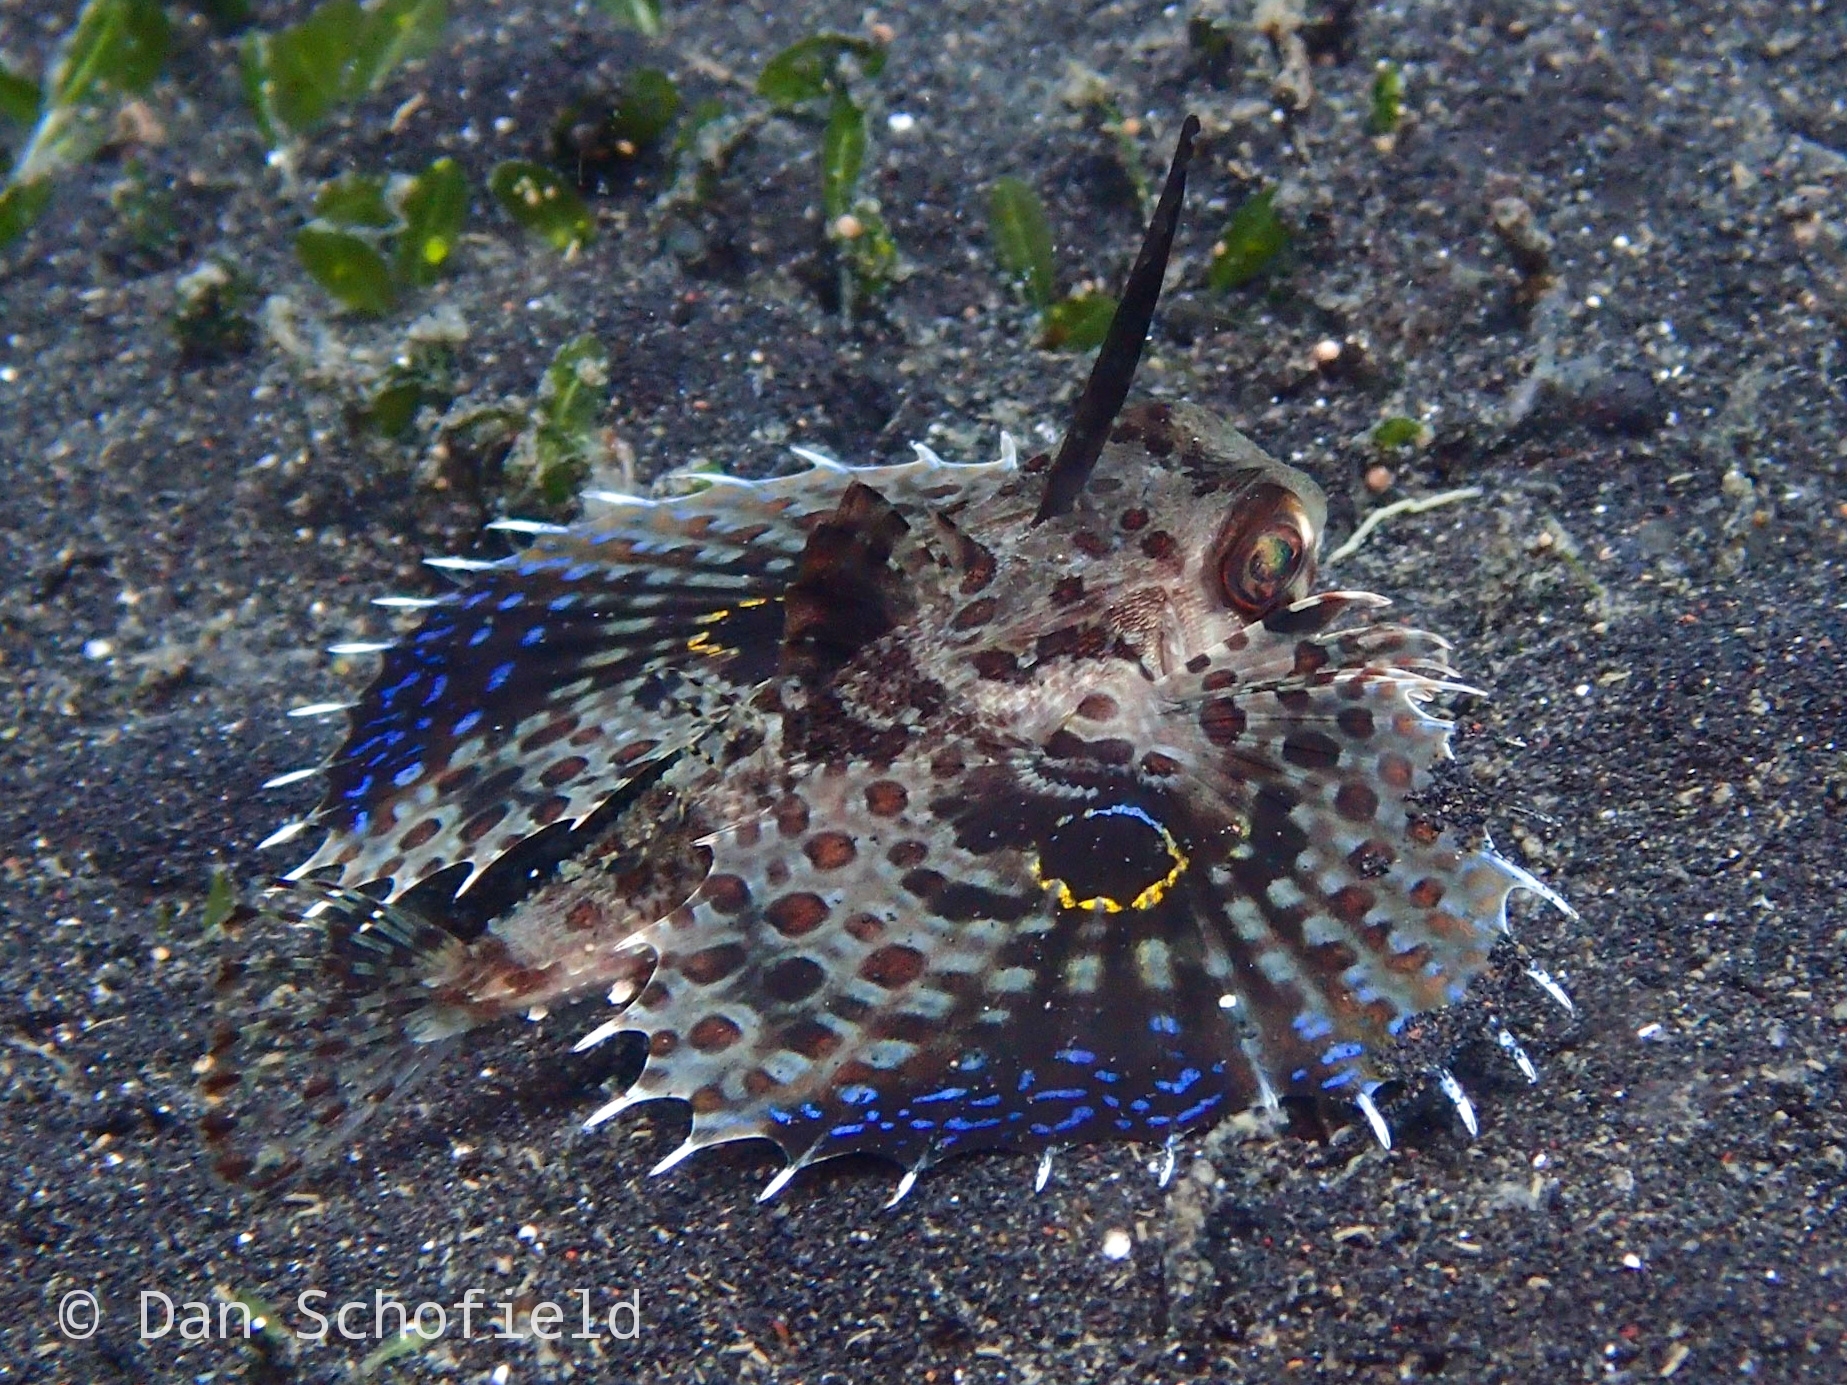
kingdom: Animalia
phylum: Chordata
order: Scorpaeniformes
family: Dactylopteridae
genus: Dactyloptena
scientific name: Dactyloptena orientalis
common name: Flying gurnard
